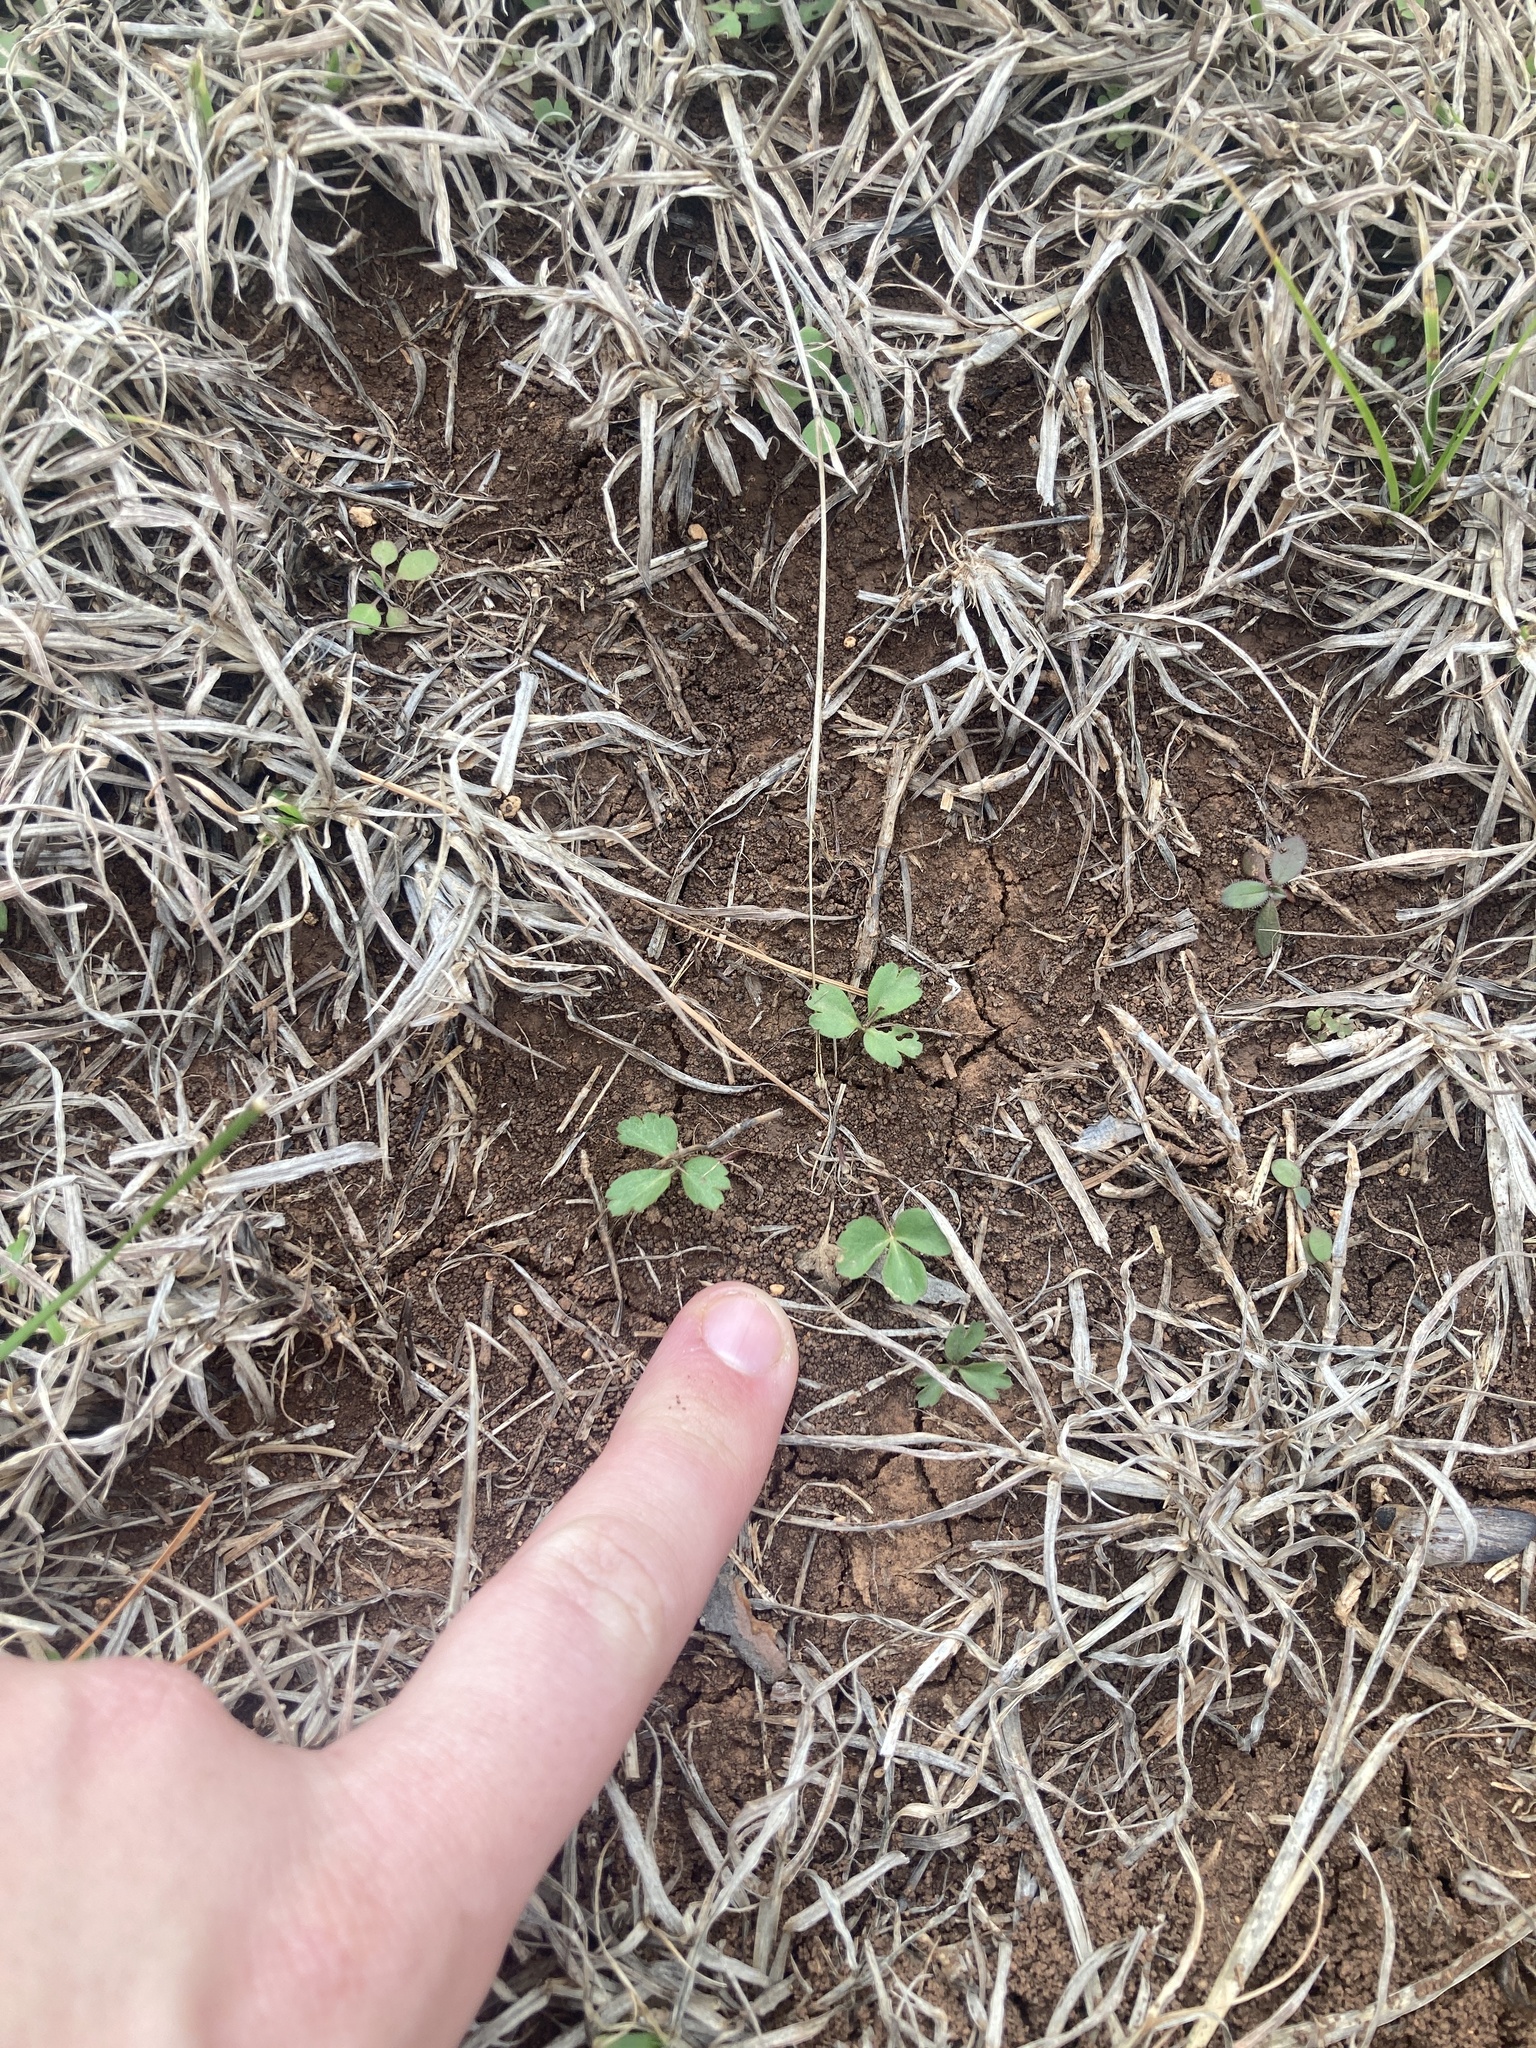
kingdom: Plantae
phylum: Tracheophyta
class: Magnoliopsida
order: Ranunculales
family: Ranunculaceae
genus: Anemone
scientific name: Anemone berlandieri
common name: Ten-petal anemone
